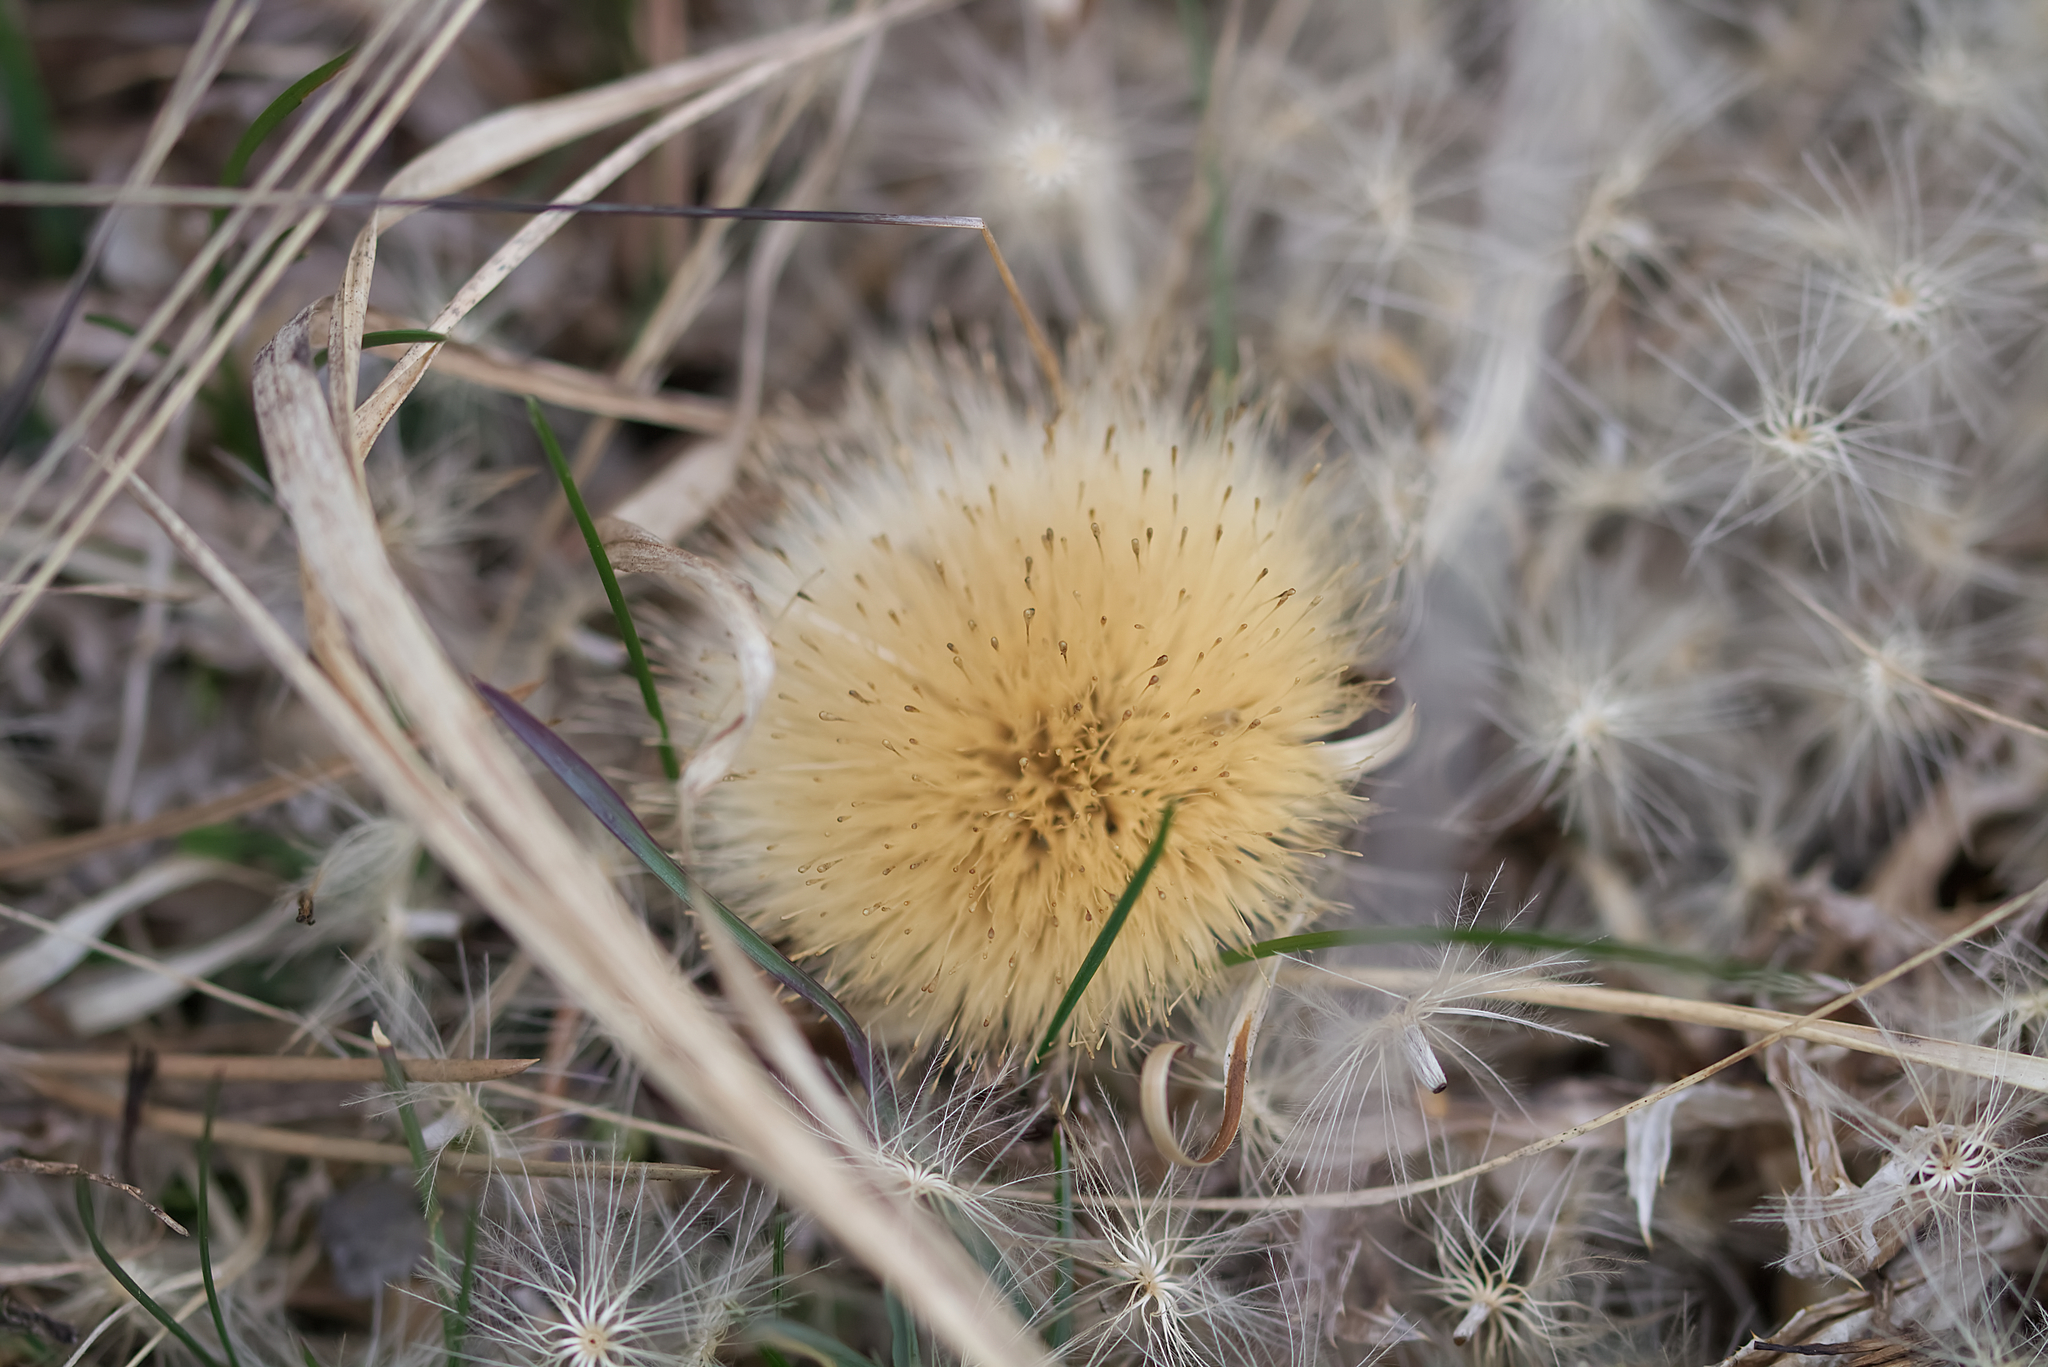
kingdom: Plantae
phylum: Tracheophyta
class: Magnoliopsida
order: Asterales
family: Asteraceae
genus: Carlina
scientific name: Carlina acaulis
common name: Stemless carline thistle
